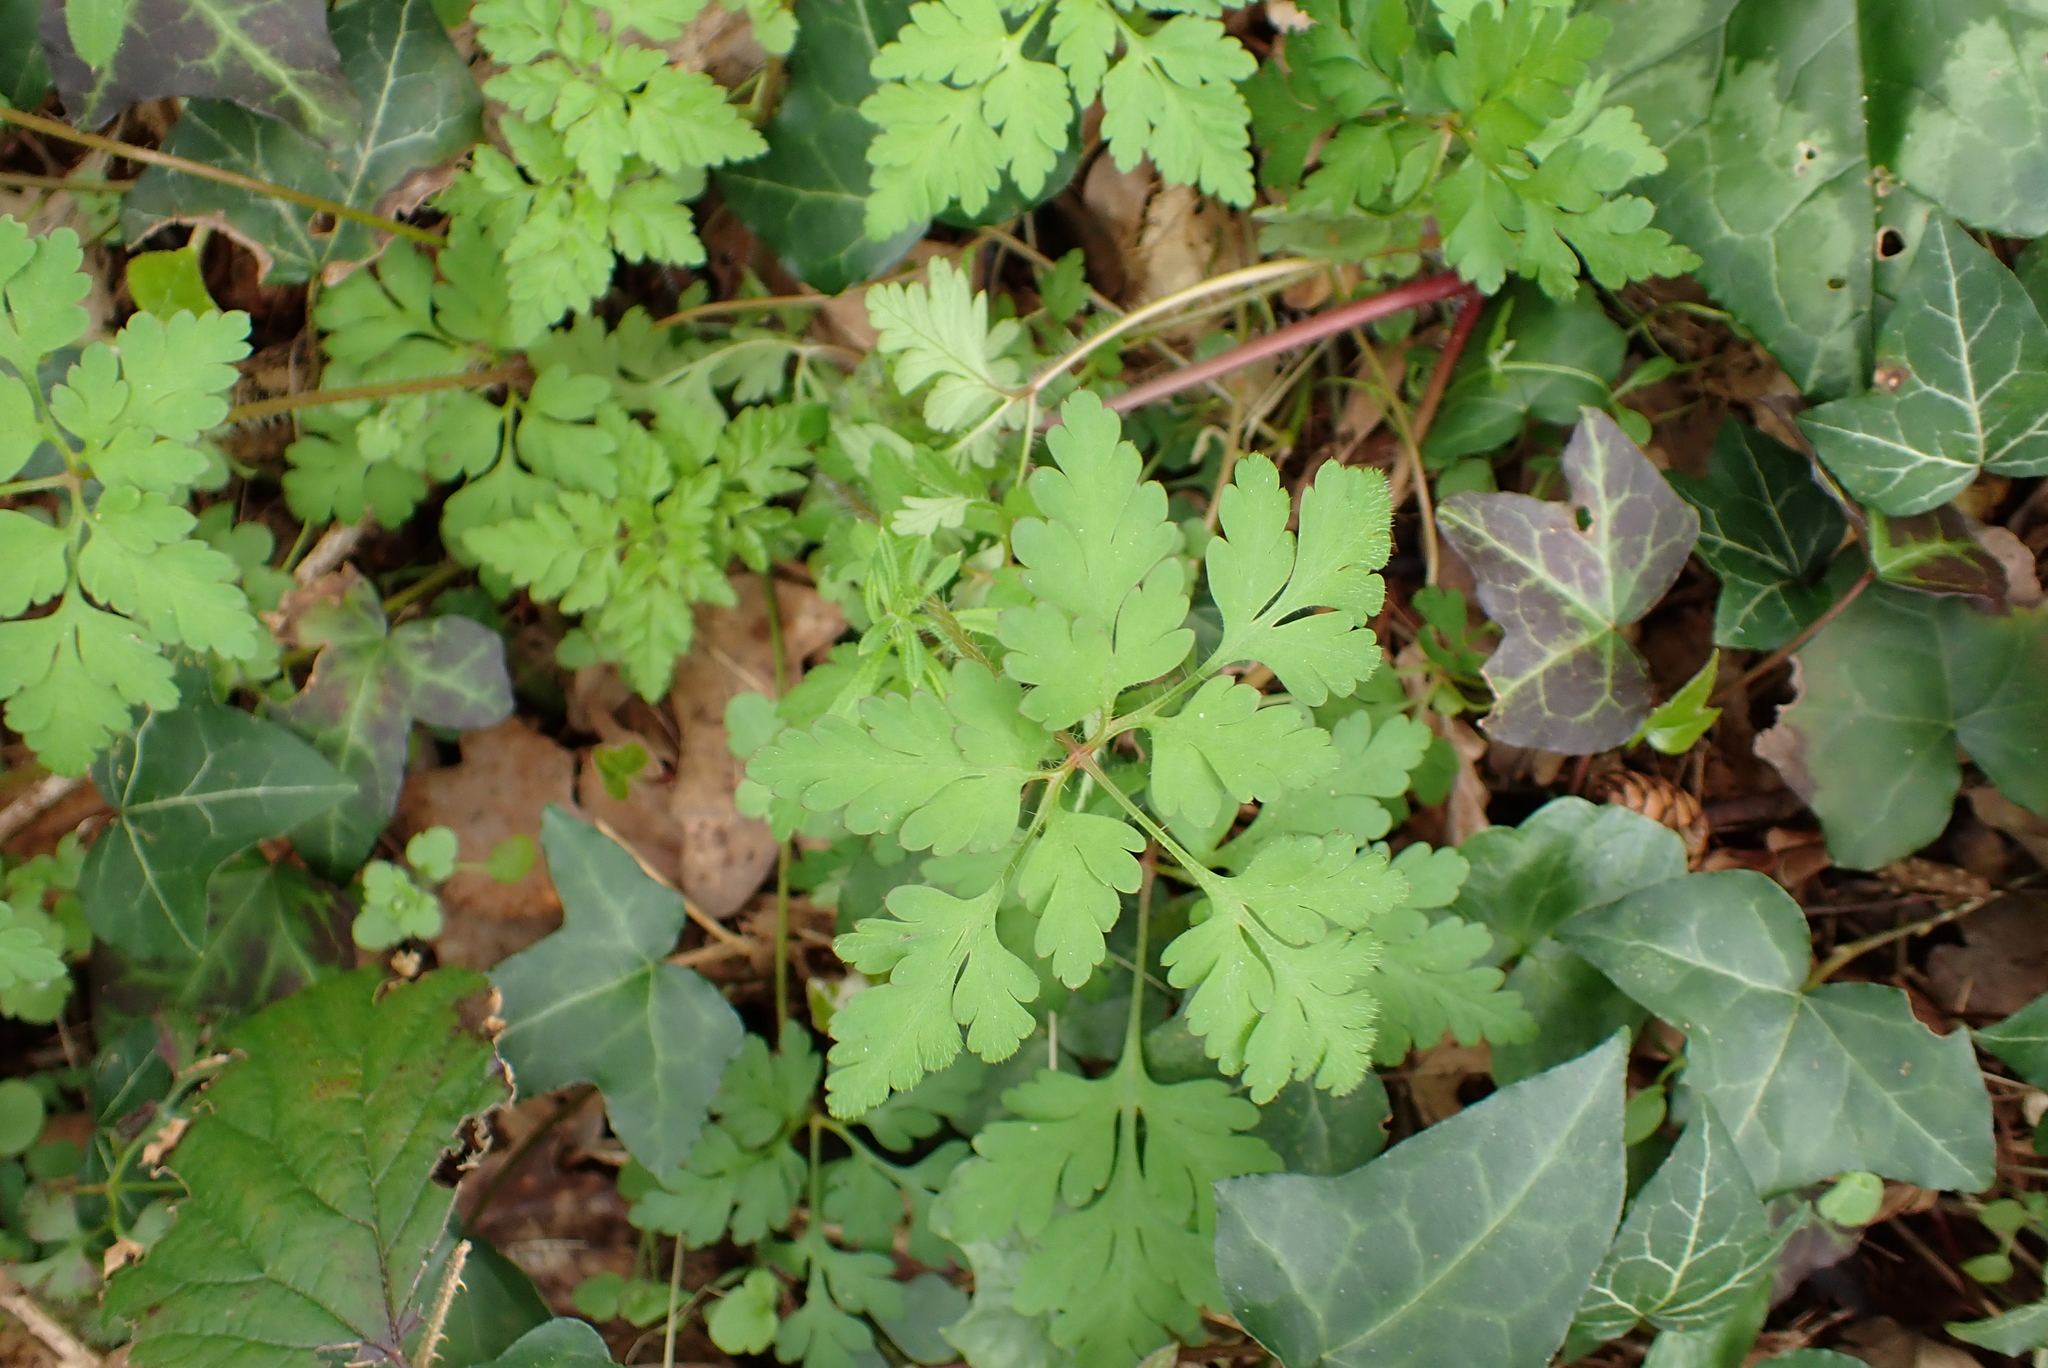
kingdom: Plantae
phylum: Tracheophyta
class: Magnoliopsida
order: Geraniales
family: Geraniaceae
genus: Geranium
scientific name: Geranium robertianum
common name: Herb-robert
